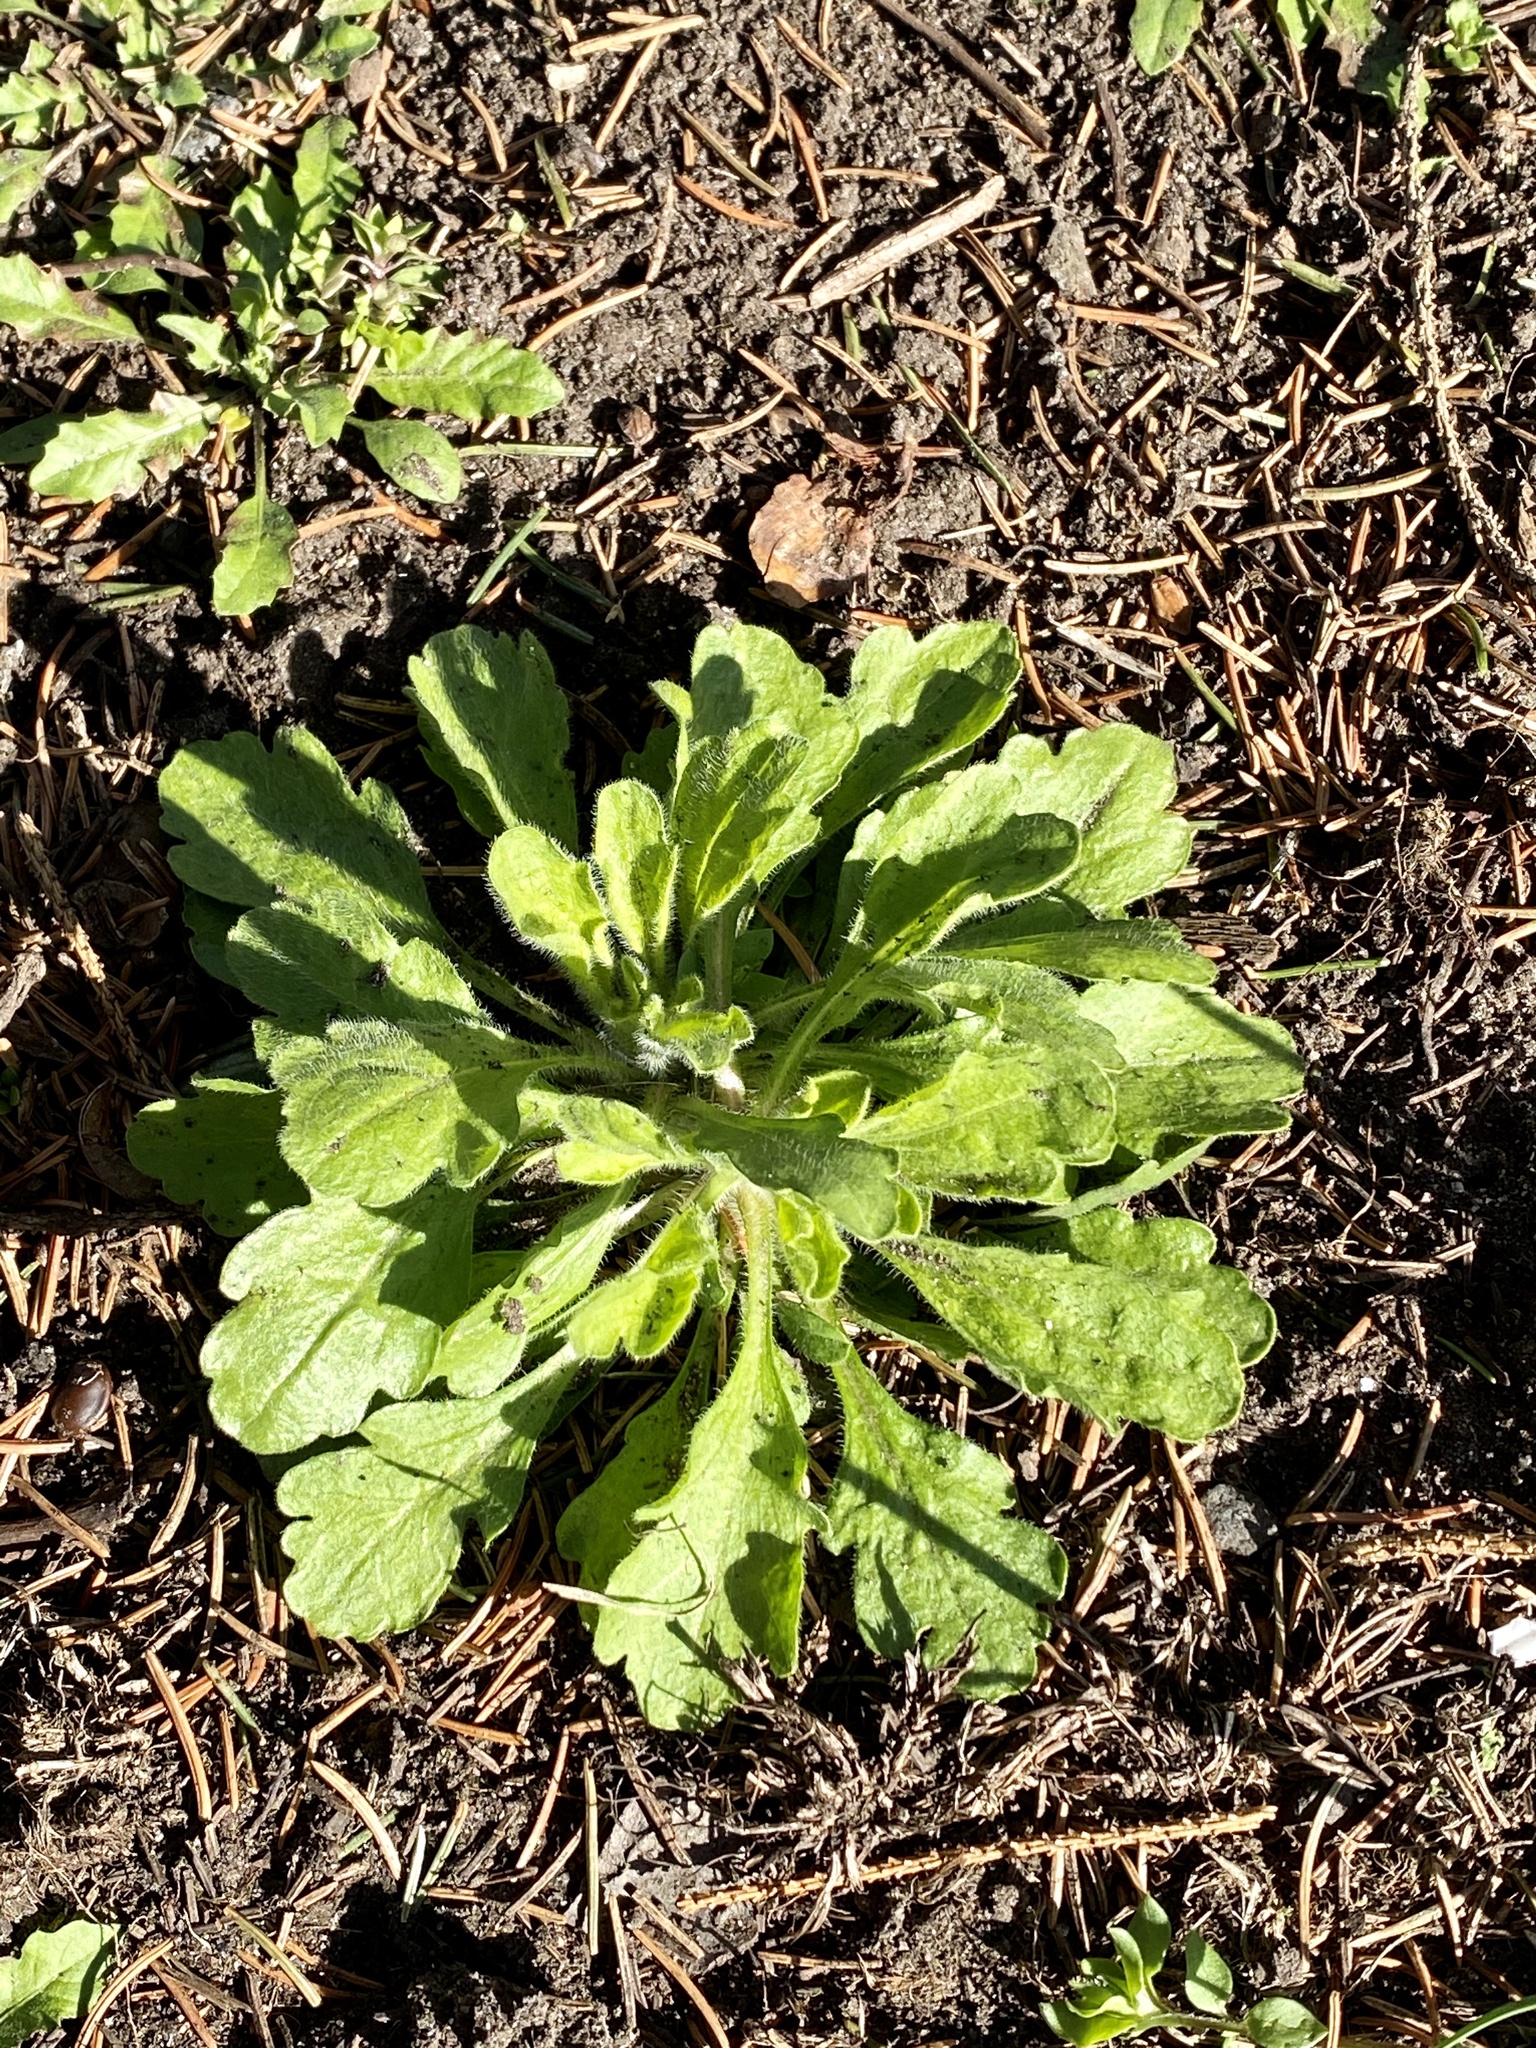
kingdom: Plantae
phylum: Tracheophyta
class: Magnoliopsida
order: Asterales
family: Asteraceae
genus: Erigeron
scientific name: Erigeron canadensis
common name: Canadian fleabane
